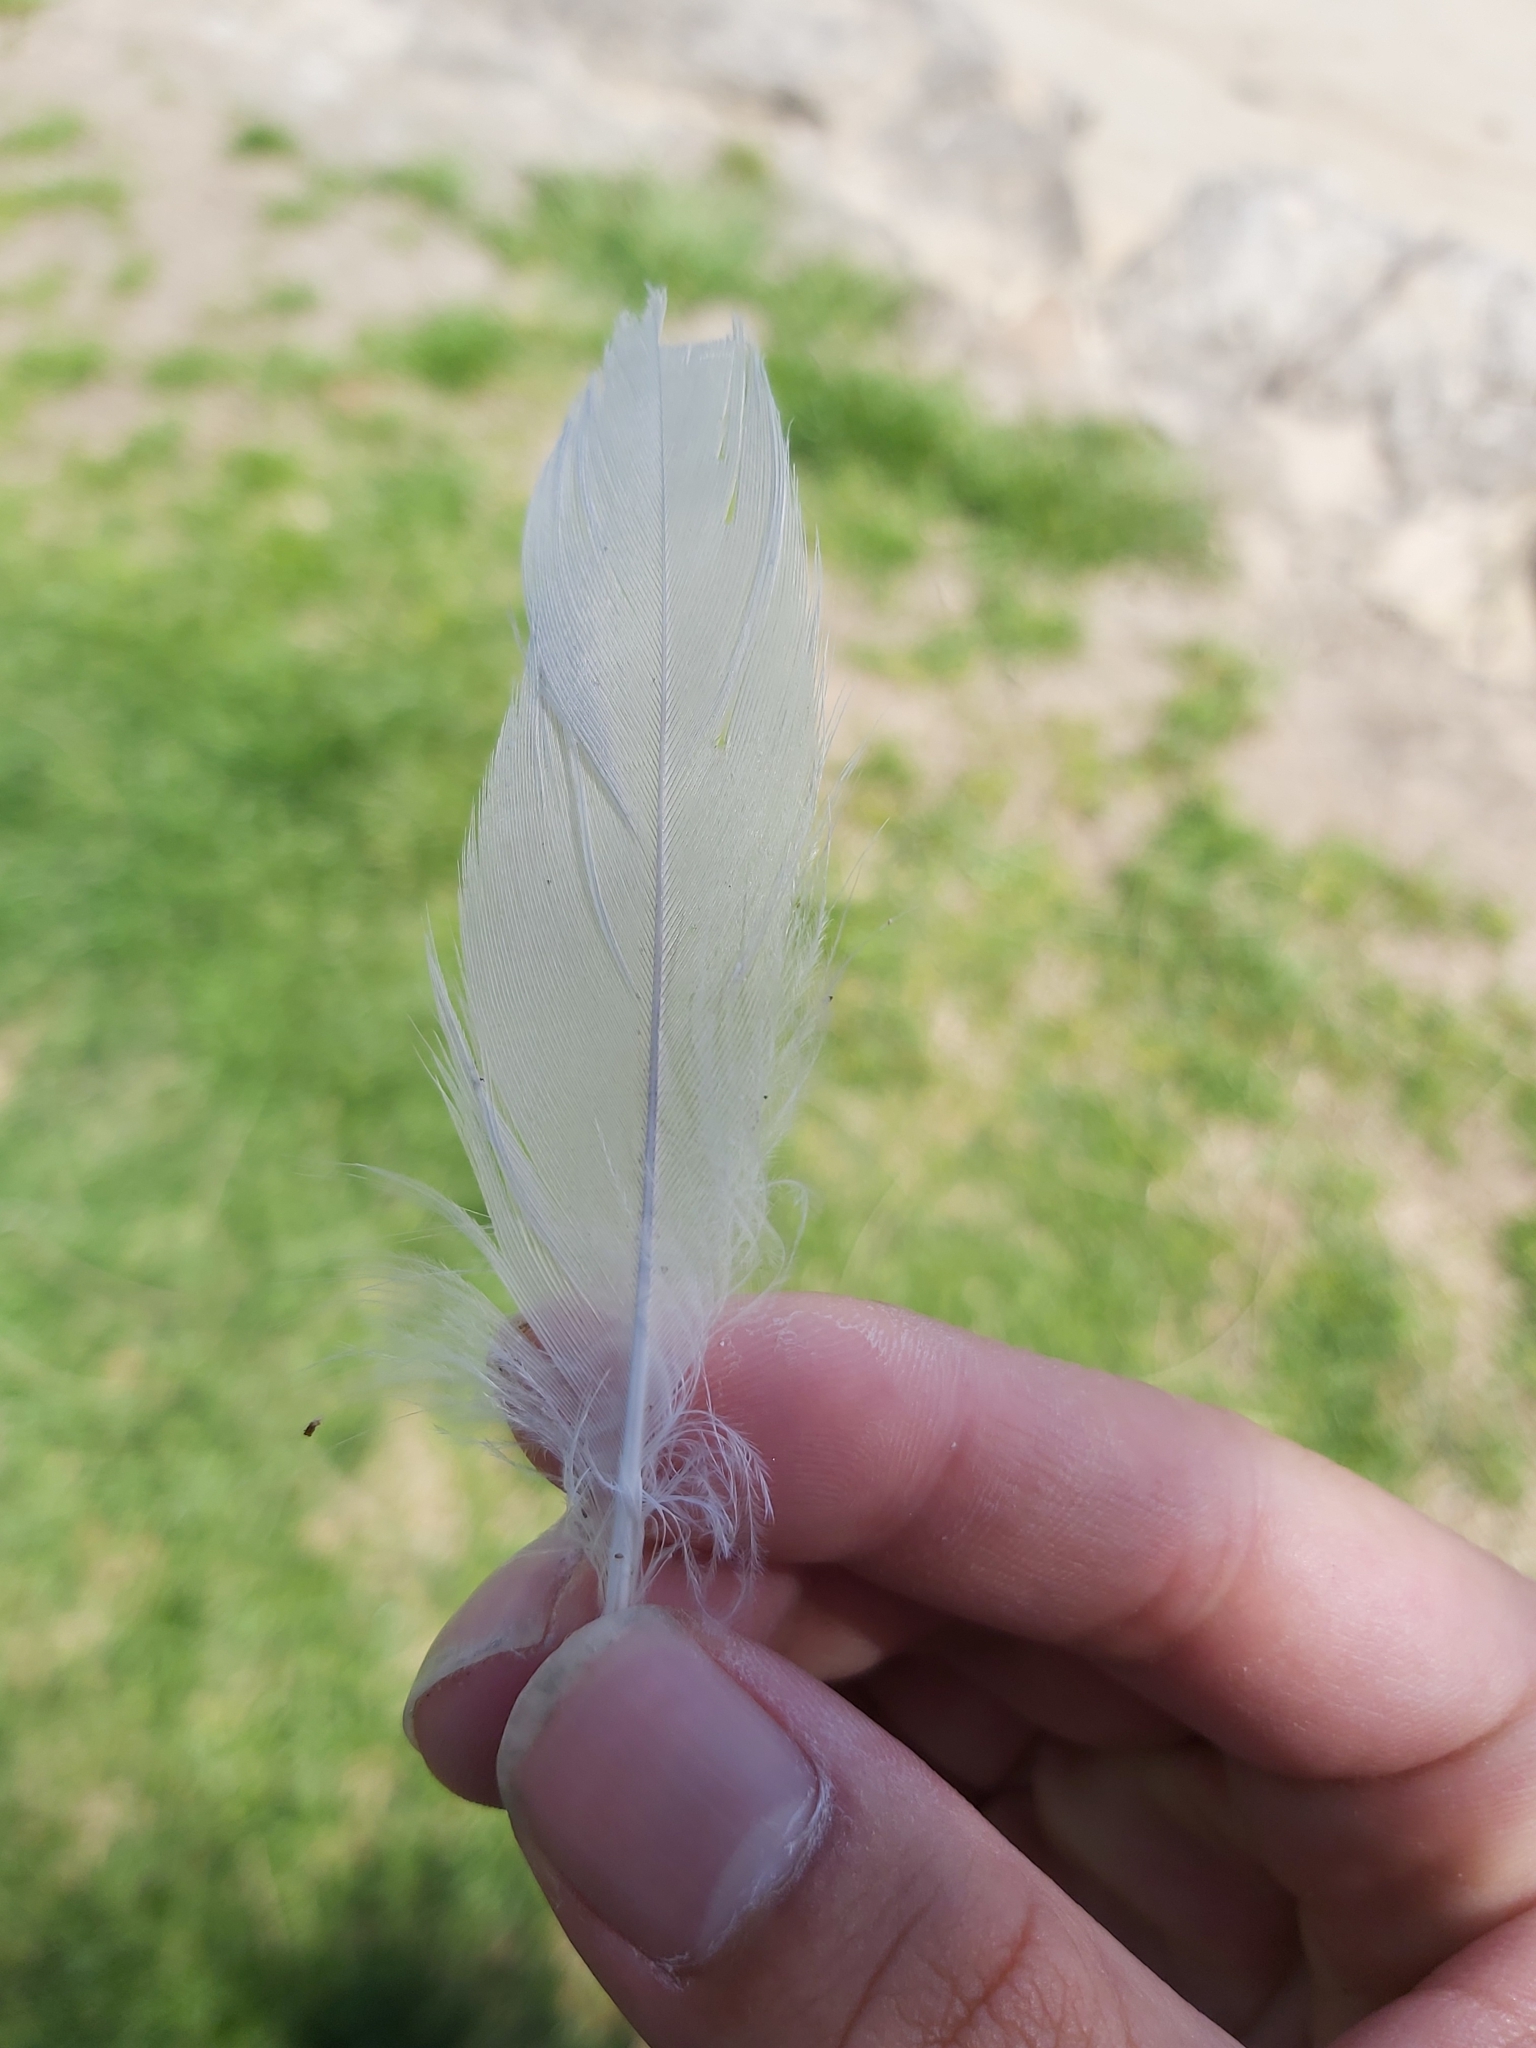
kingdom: Animalia
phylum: Chordata
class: Aves
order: Charadriiformes
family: Laridae
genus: Chroicocephalus
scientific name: Chroicocephalus novaehollandiae
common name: Silver gull
